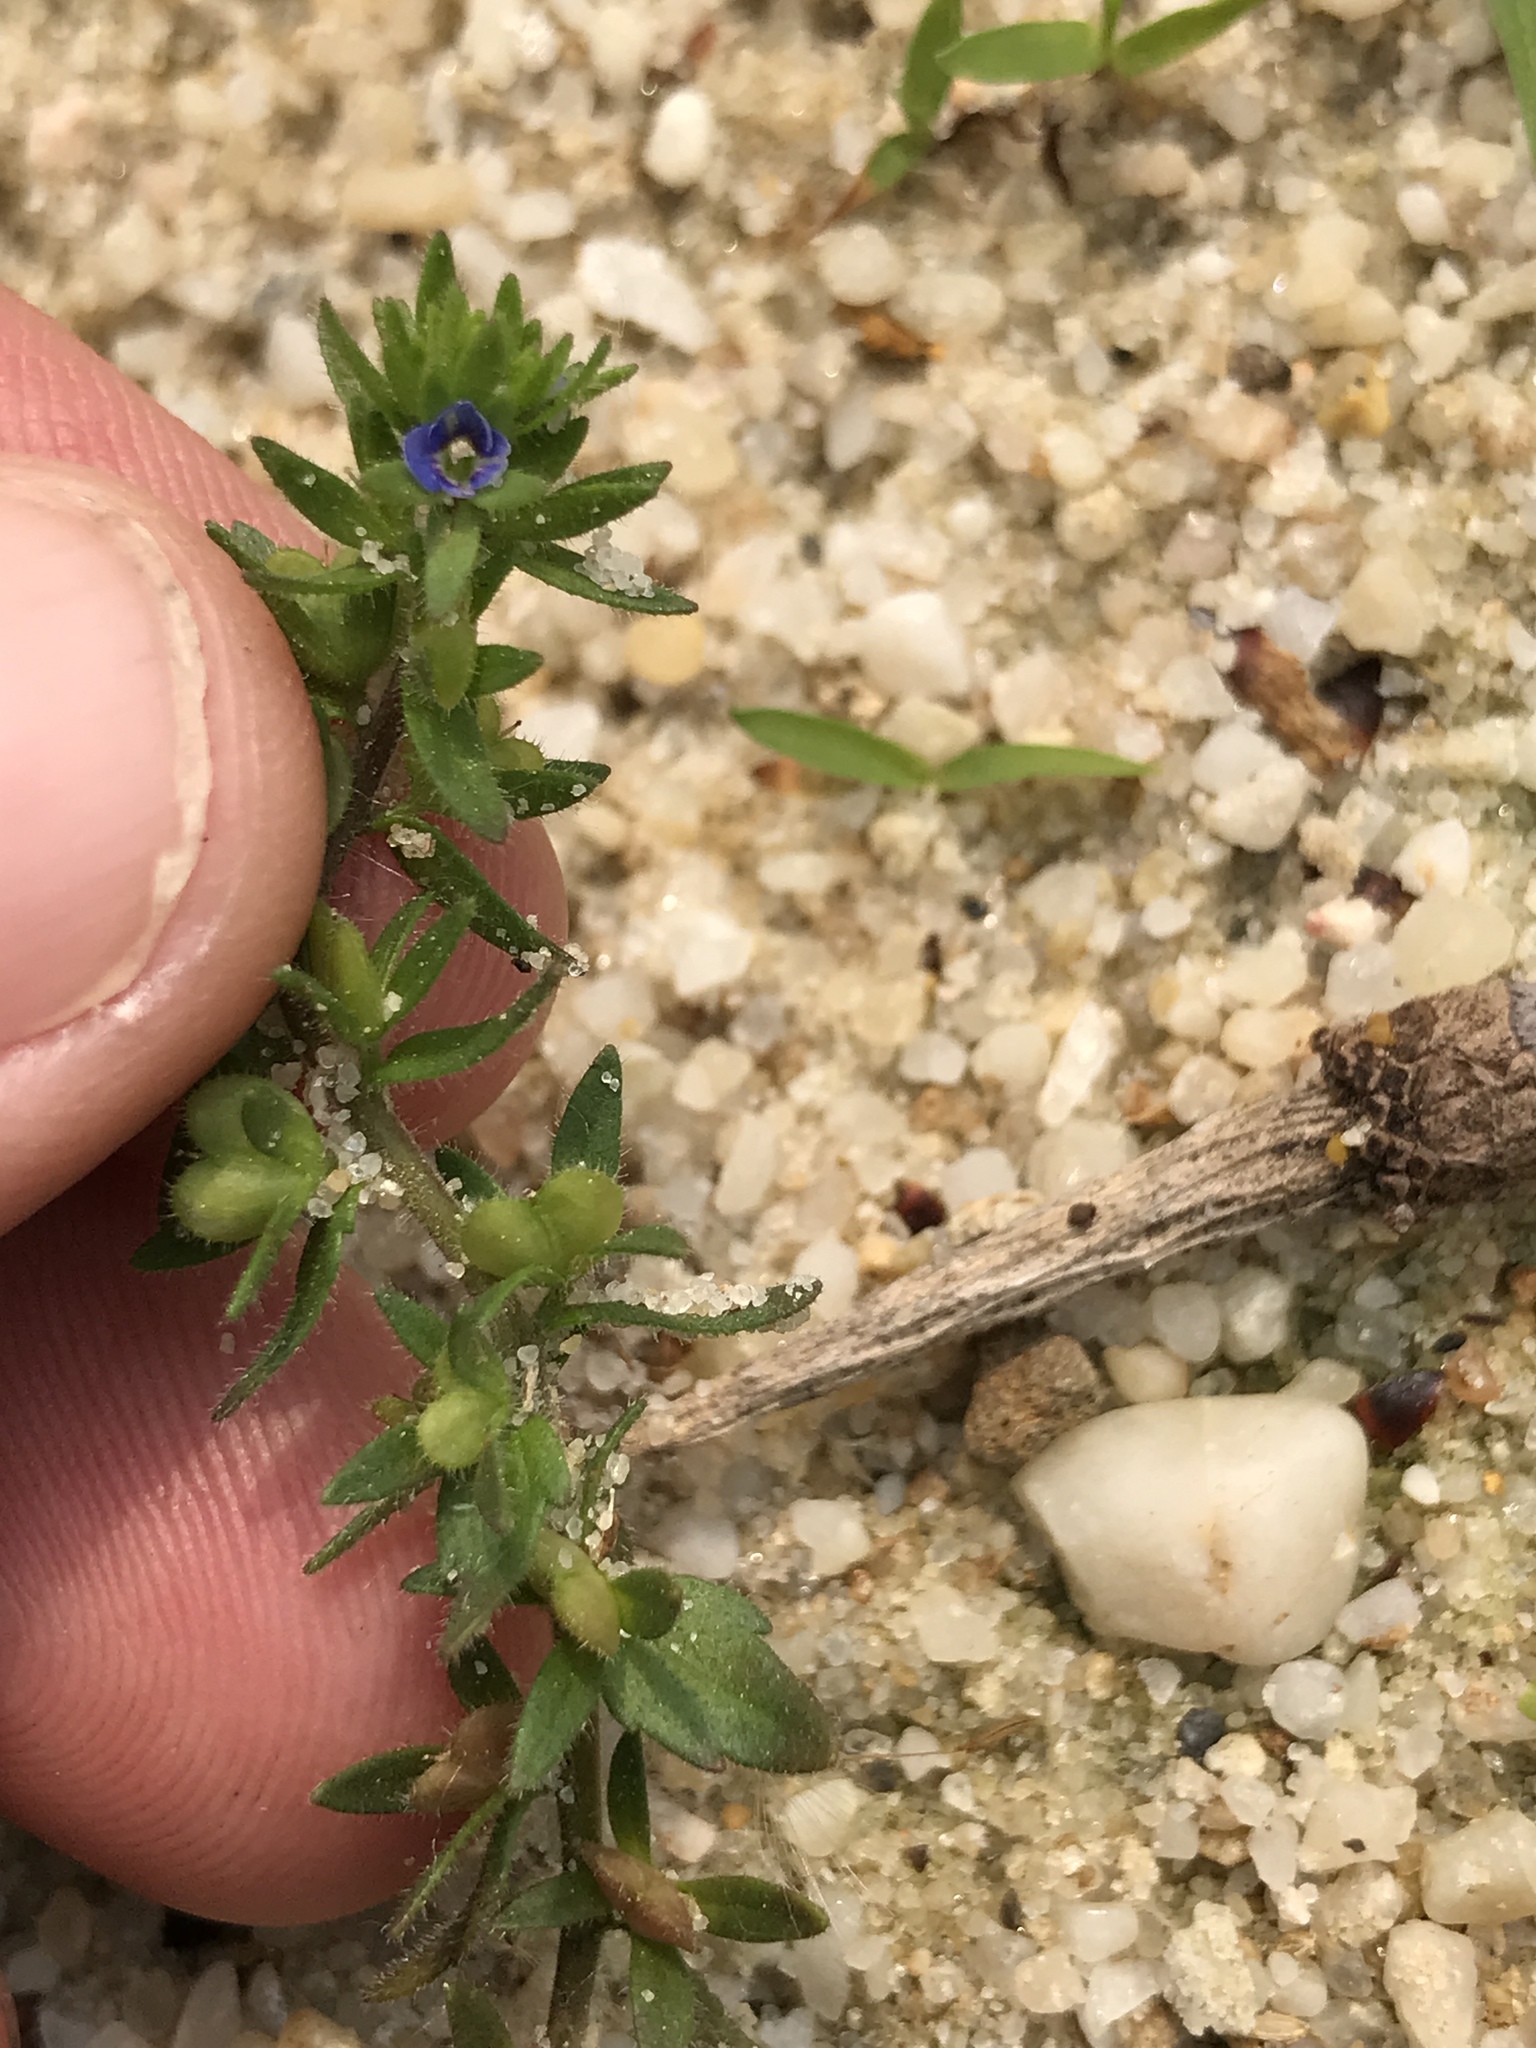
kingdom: Plantae
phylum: Tracheophyta
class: Magnoliopsida
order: Lamiales
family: Plantaginaceae
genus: Veronica
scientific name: Veronica arvensis
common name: Corn speedwell
